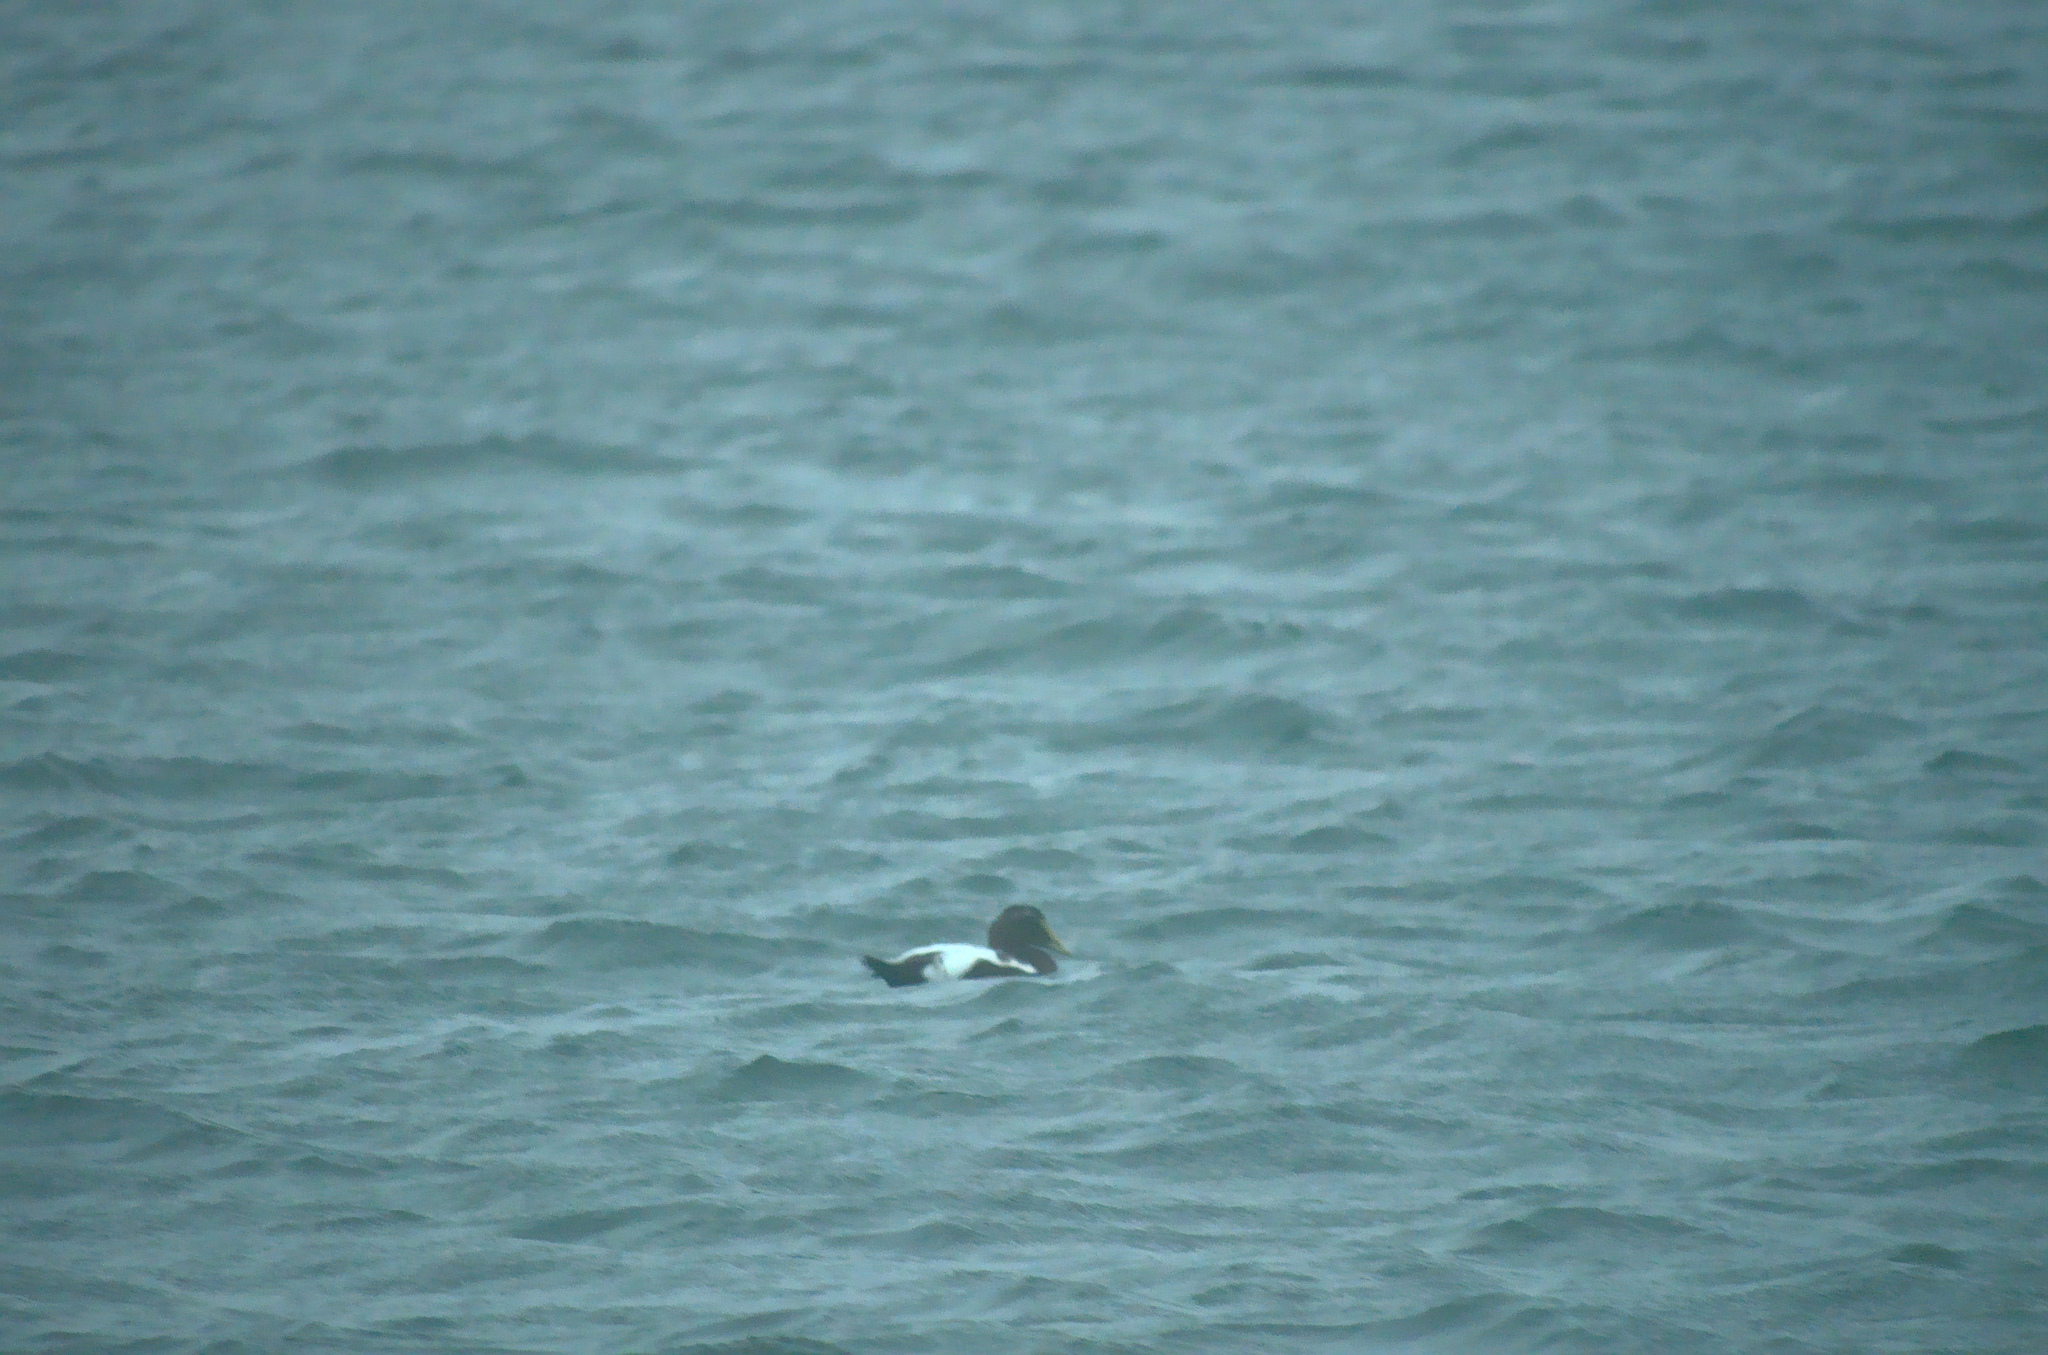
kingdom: Animalia
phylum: Chordata
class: Aves
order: Anseriformes
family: Anatidae
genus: Somateria
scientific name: Somateria mollissima
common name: Common eider
